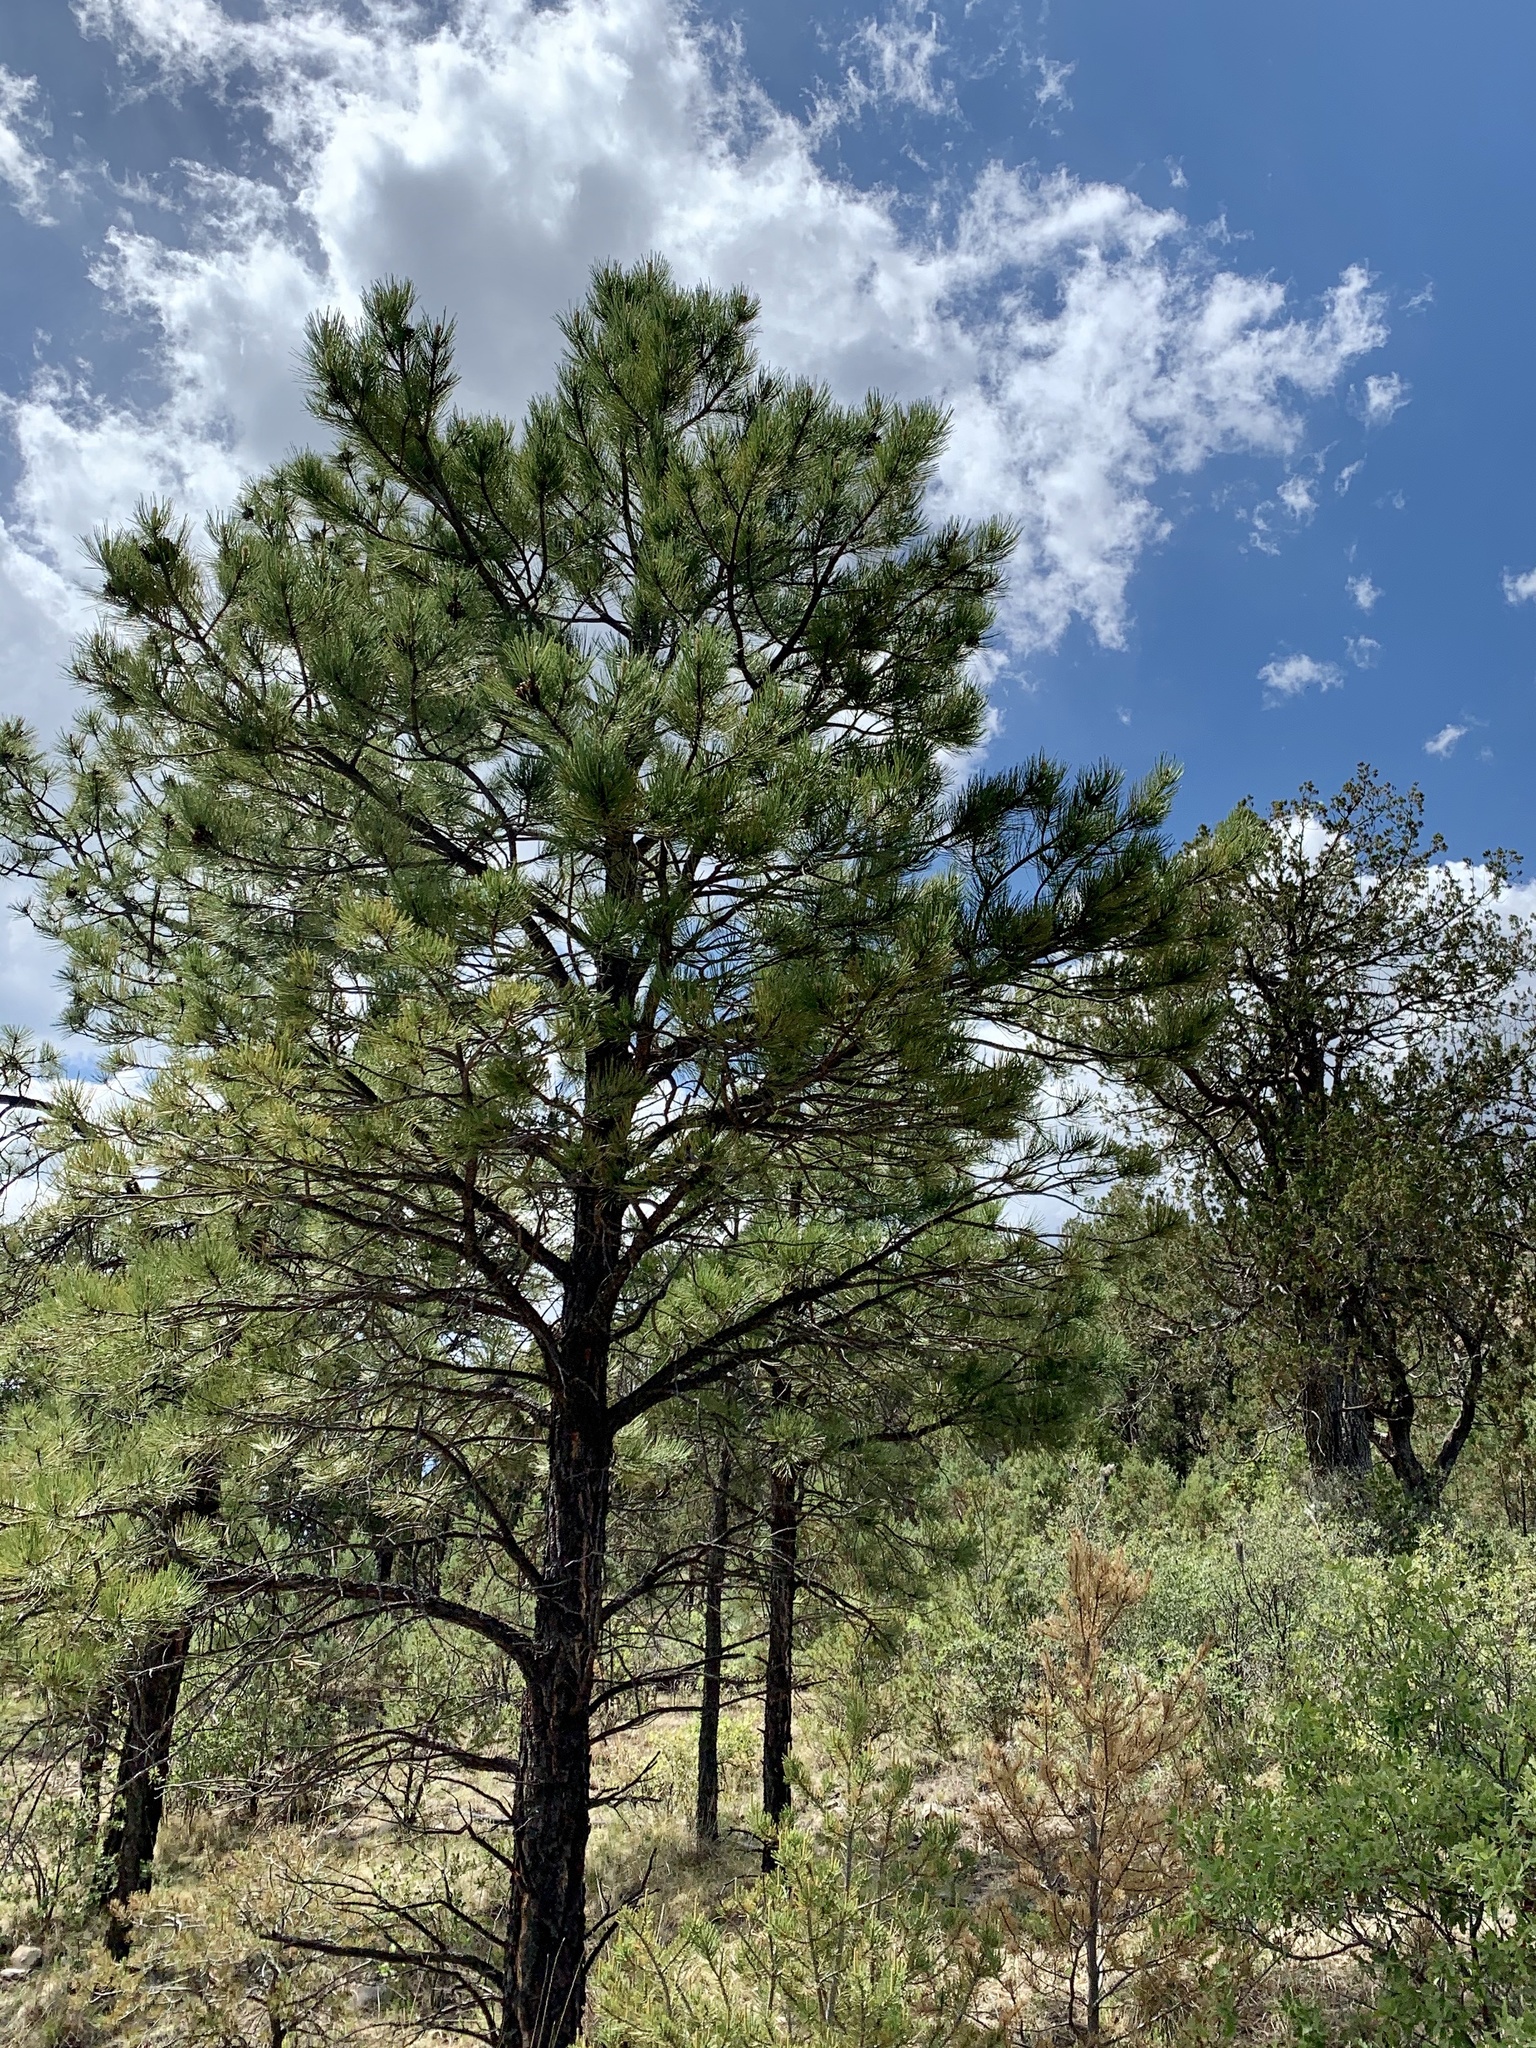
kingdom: Plantae
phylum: Tracheophyta
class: Pinopsida
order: Pinales
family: Pinaceae
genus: Pinus
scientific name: Pinus ponderosa
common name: Western yellow-pine
